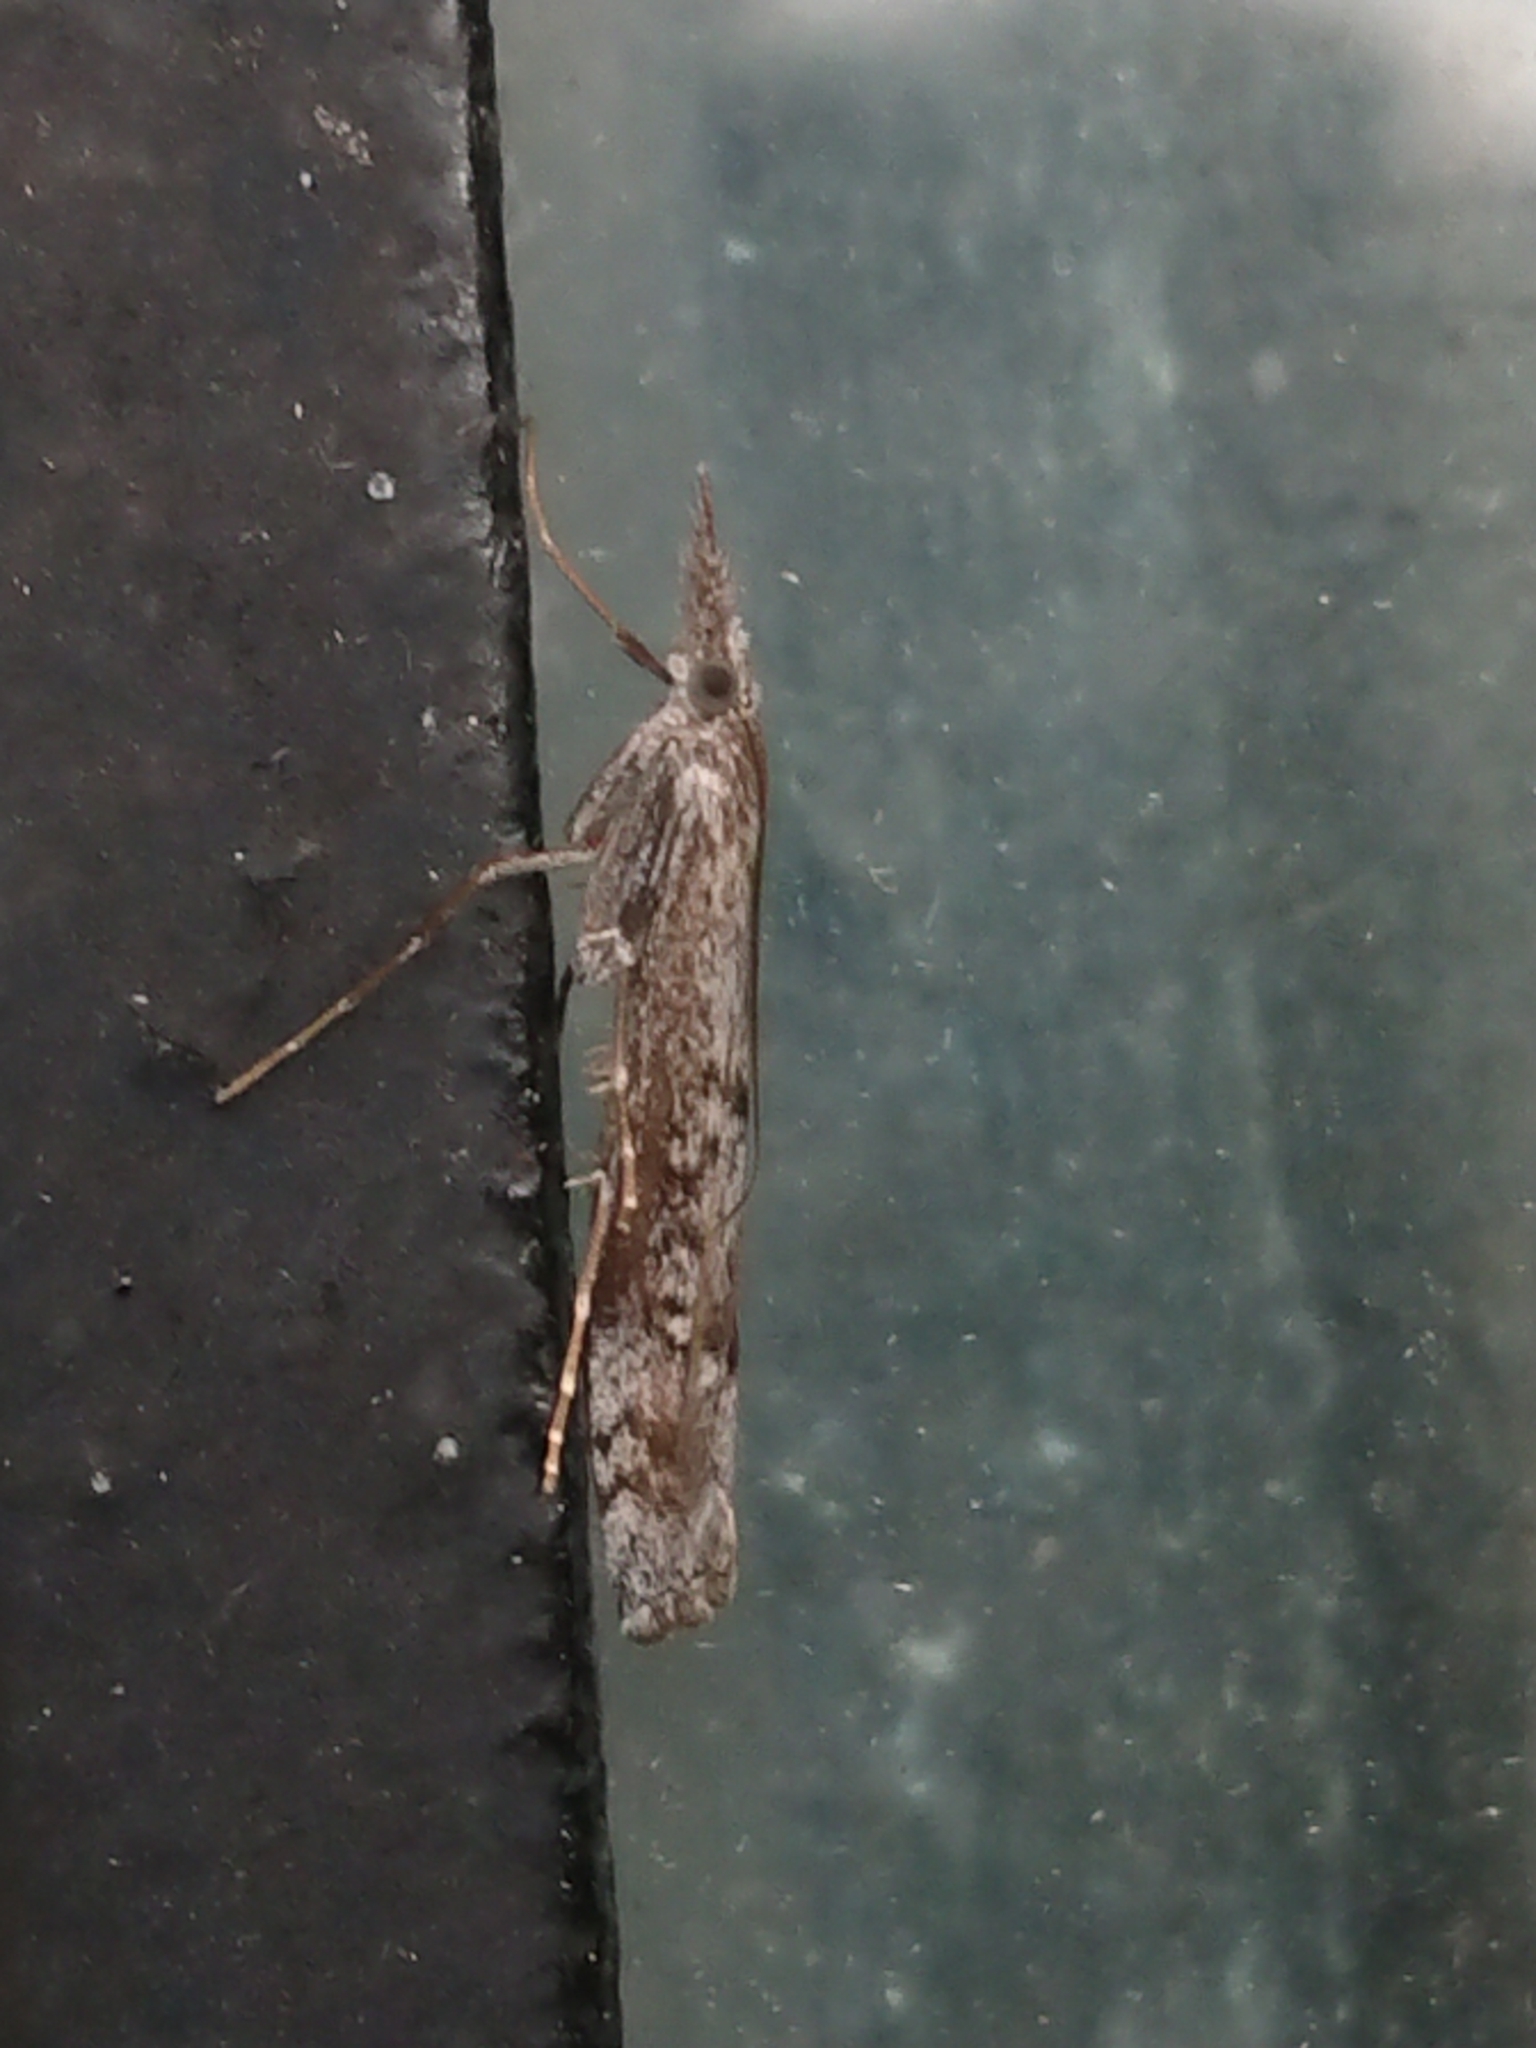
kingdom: Animalia
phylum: Arthropoda
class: Insecta
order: Lepidoptera
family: Crambidae
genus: Orocrambus
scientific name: Orocrambus cyclopicus
